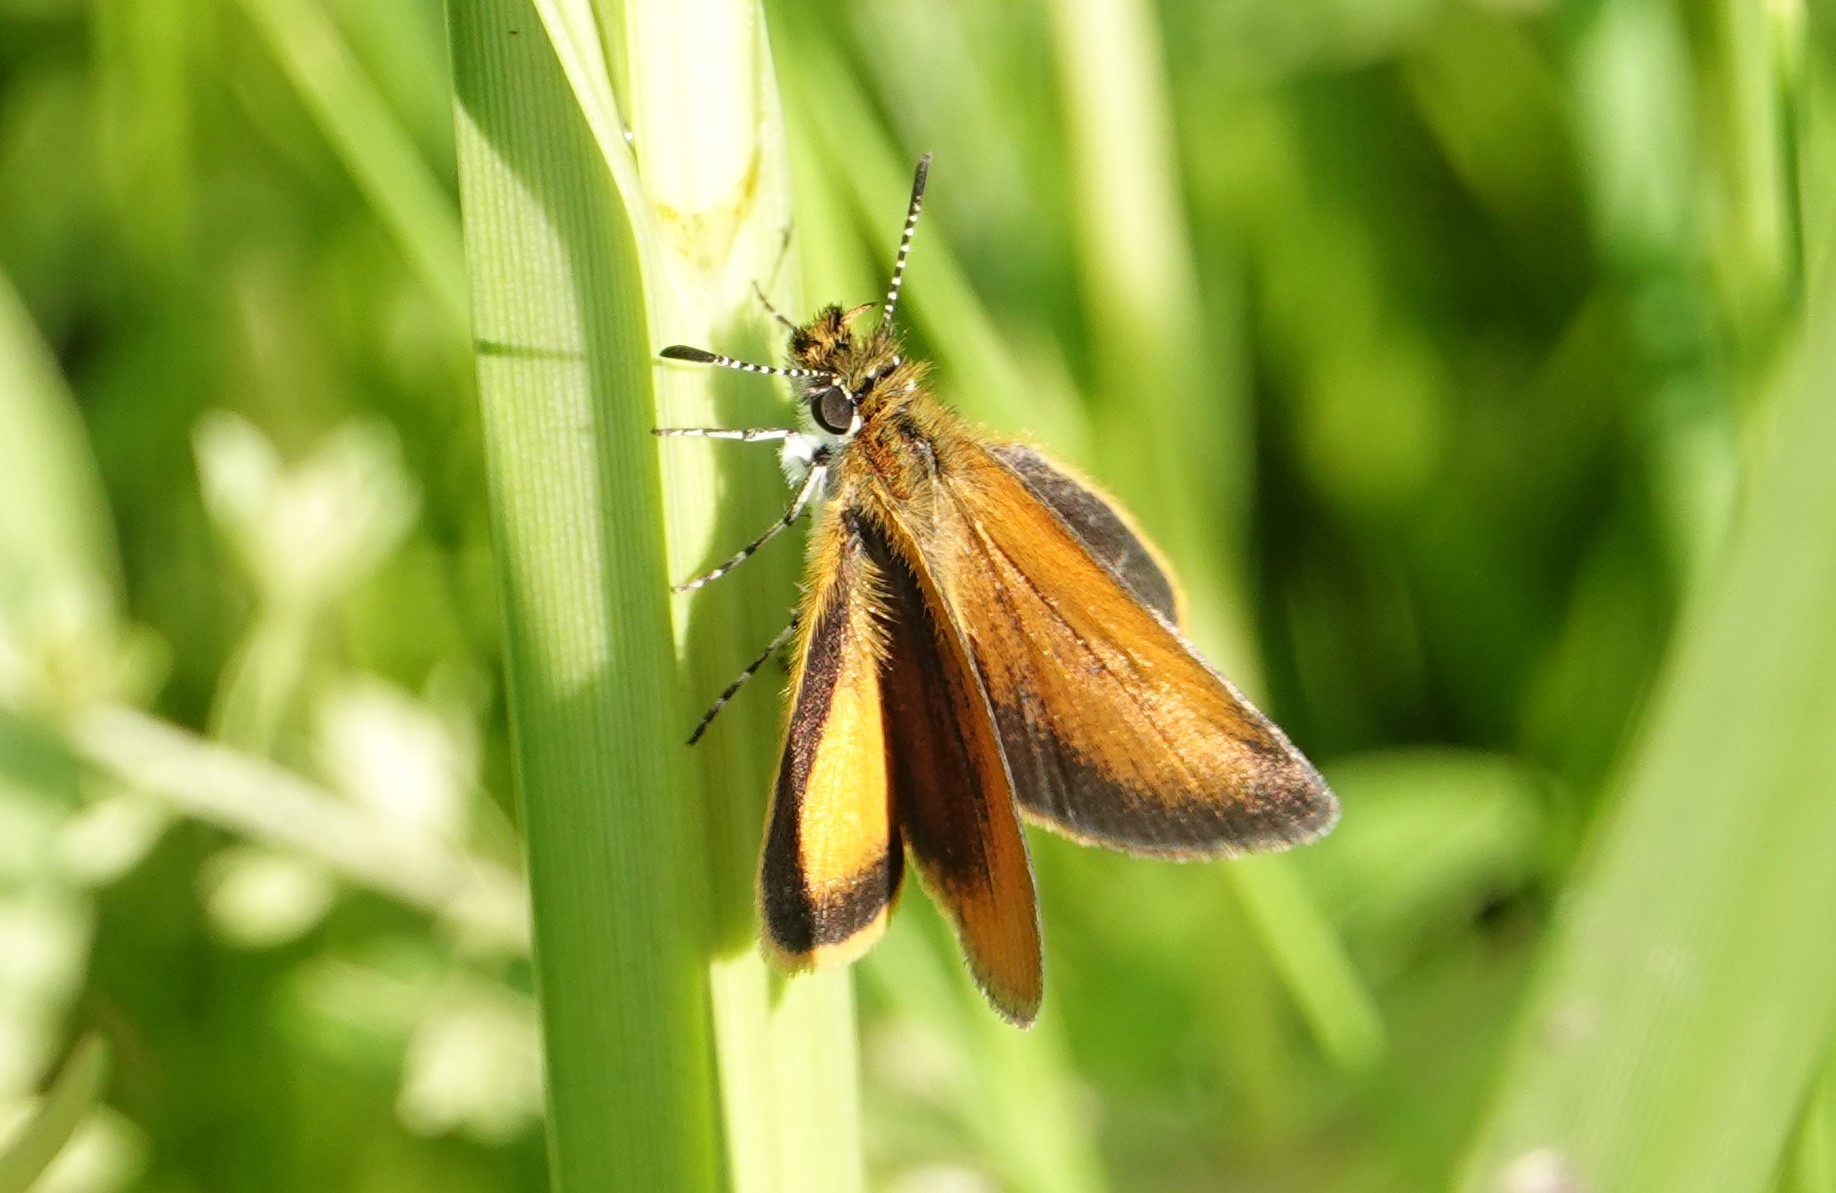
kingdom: Animalia
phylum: Arthropoda
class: Insecta
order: Lepidoptera
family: Hesperiidae
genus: Ancyloxypha
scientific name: Ancyloxypha numitor
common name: Least skipper
